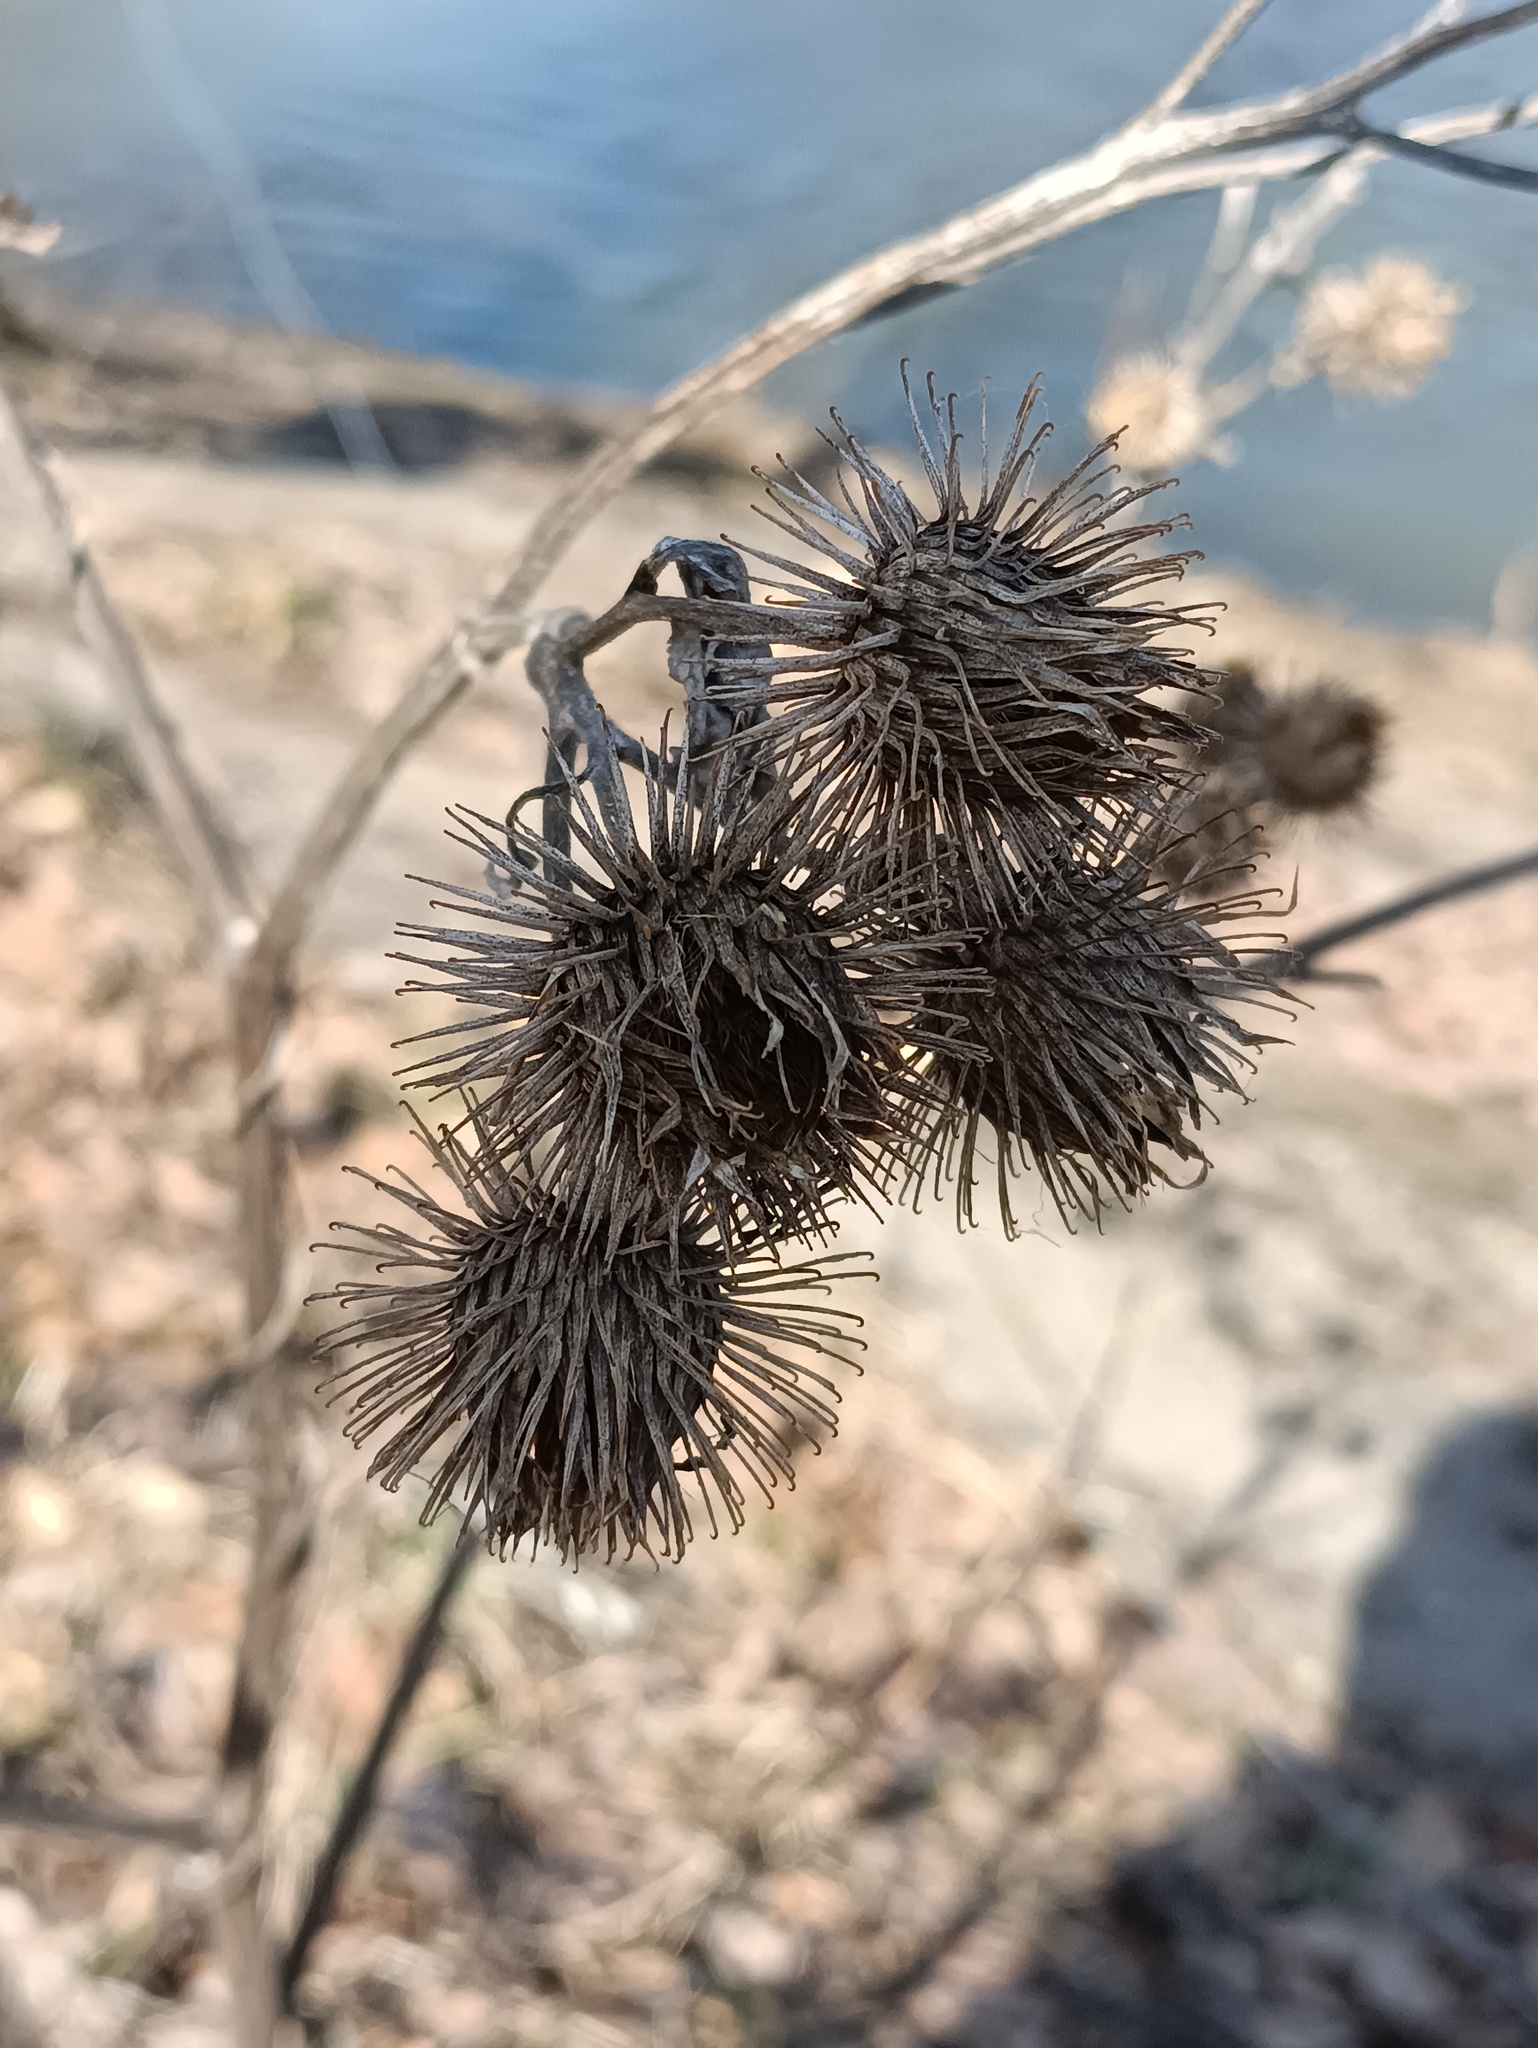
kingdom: Plantae
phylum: Tracheophyta
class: Magnoliopsida
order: Asterales
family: Asteraceae
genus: Arctium
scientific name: Arctium tomentosum
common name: Woolly burdock
